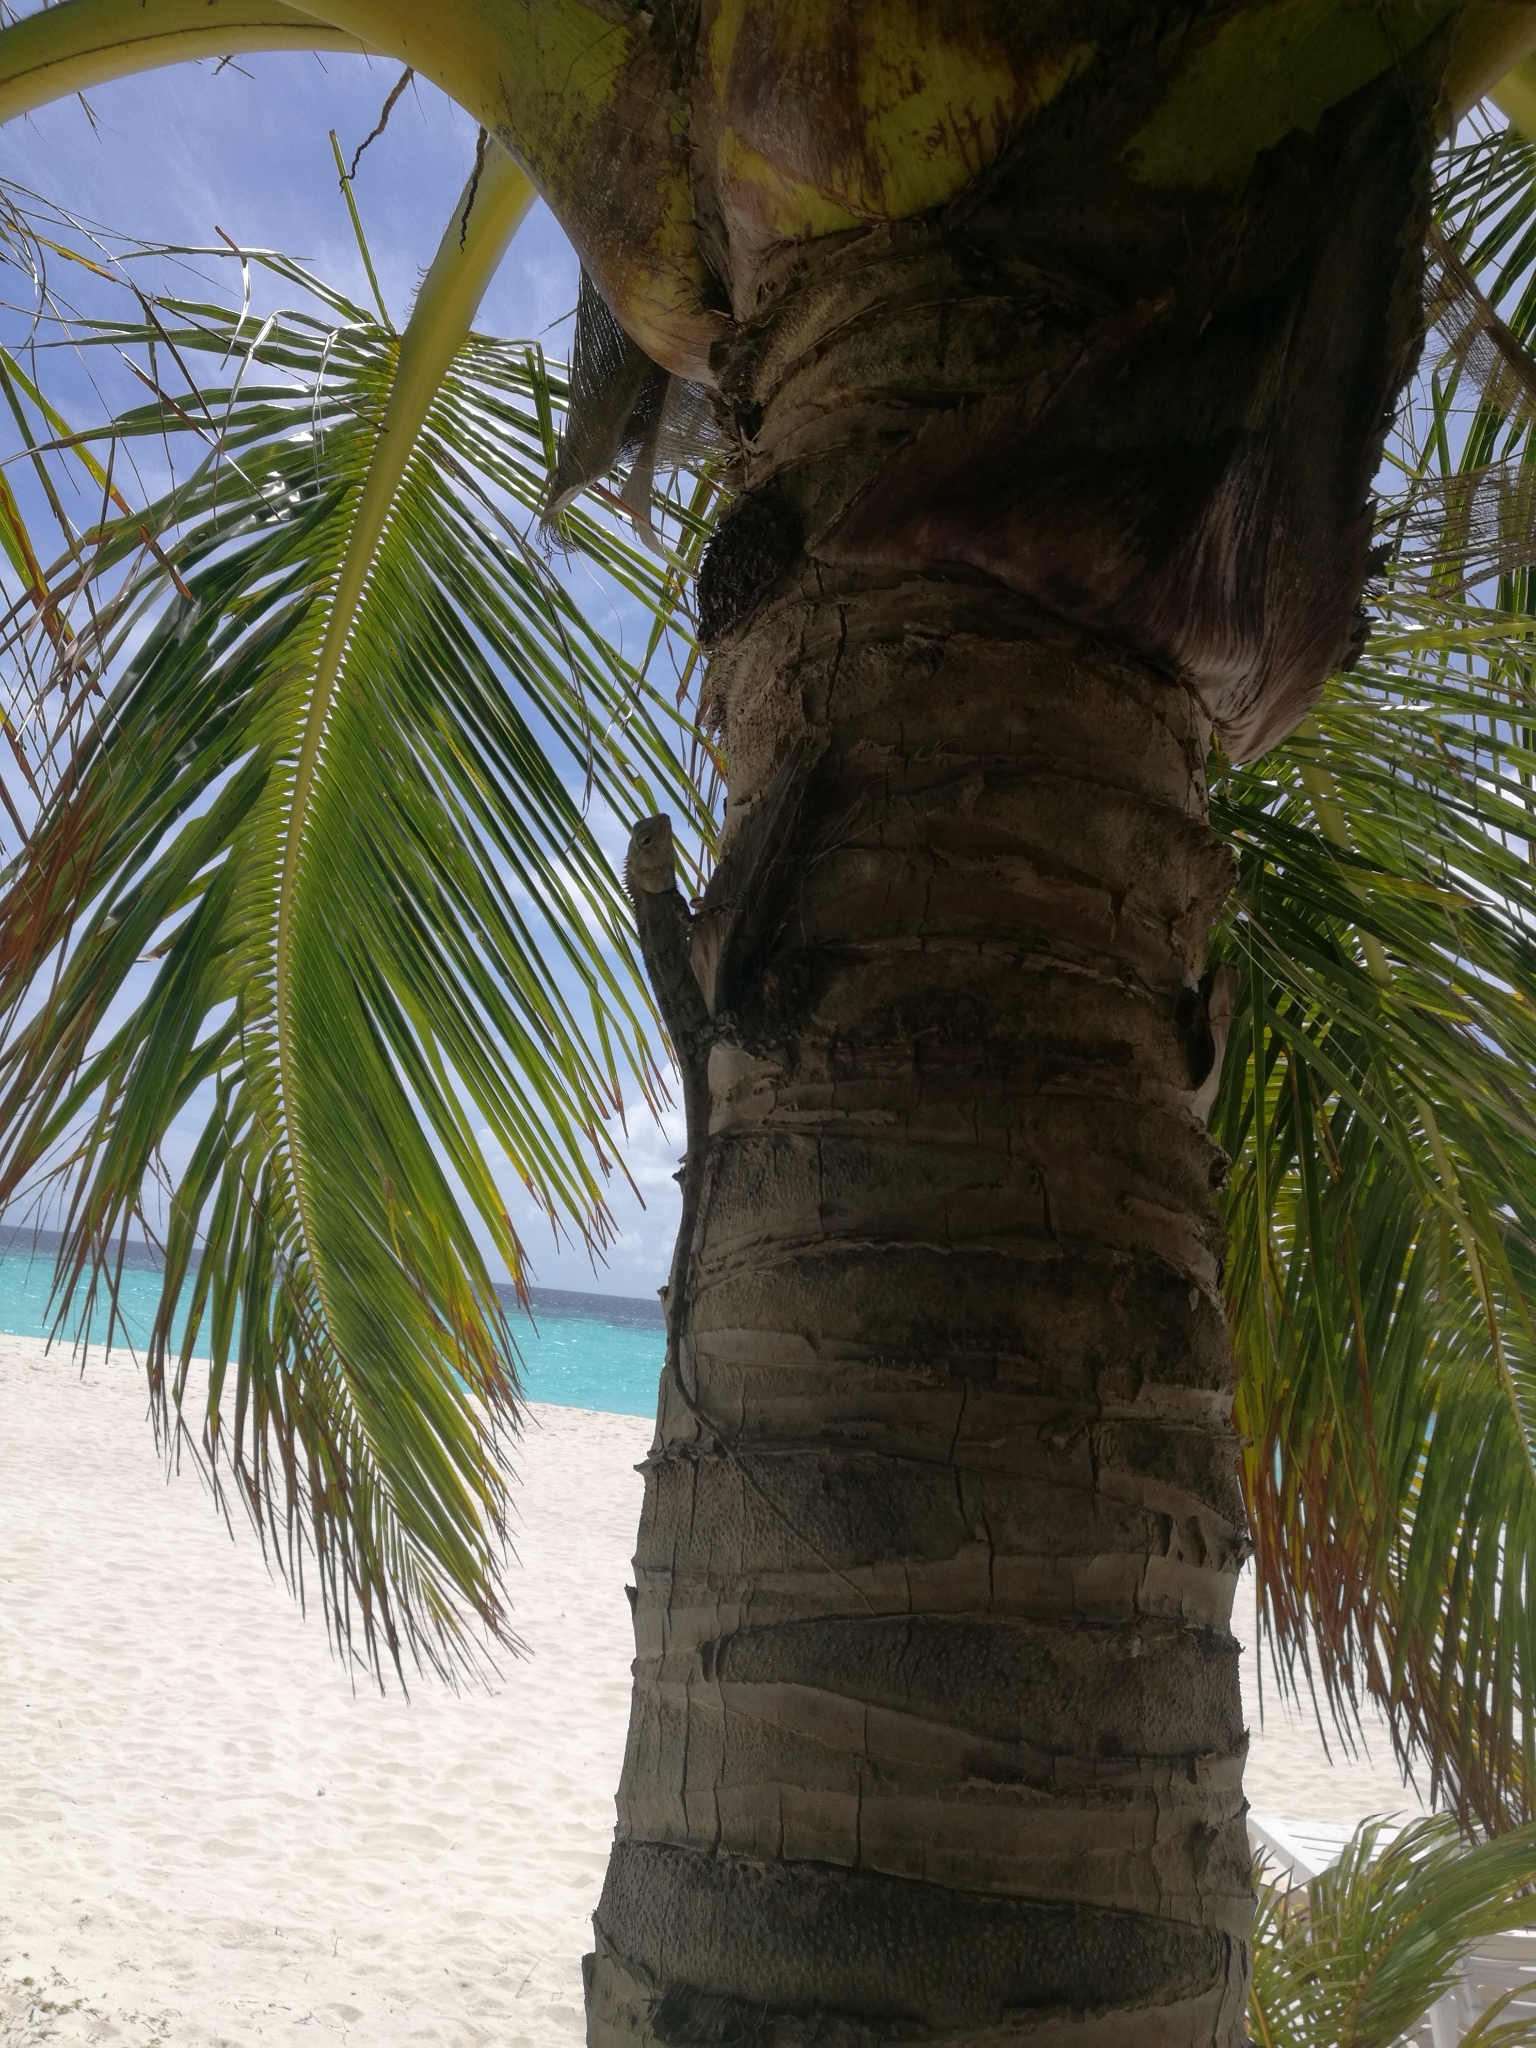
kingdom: Animalia
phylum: Chordata
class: Squamata
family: Agamidae
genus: Calotes
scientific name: Calotes versicolor
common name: Oriental garden lizard
